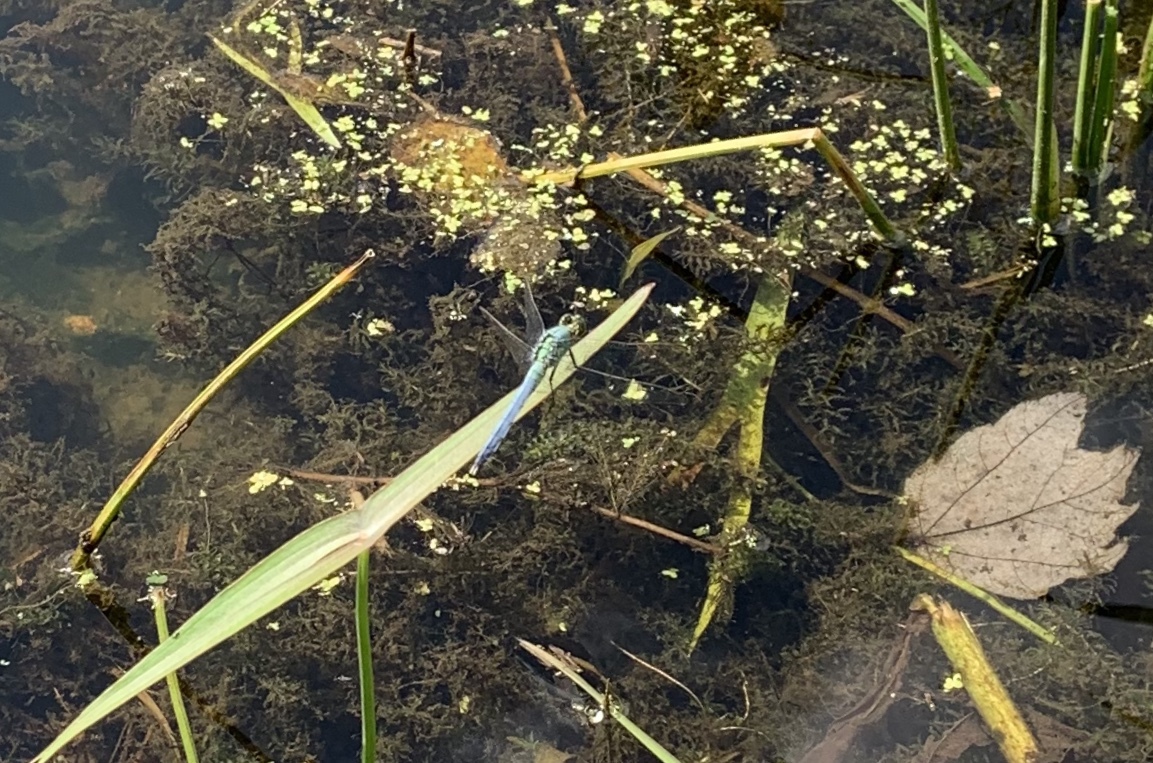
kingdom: Animalia
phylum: Arthropoda
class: Insecta
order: Odonata
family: Libellulidae
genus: Erythemis
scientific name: Erythemis simplicicollis
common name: Eastern pondhawk
